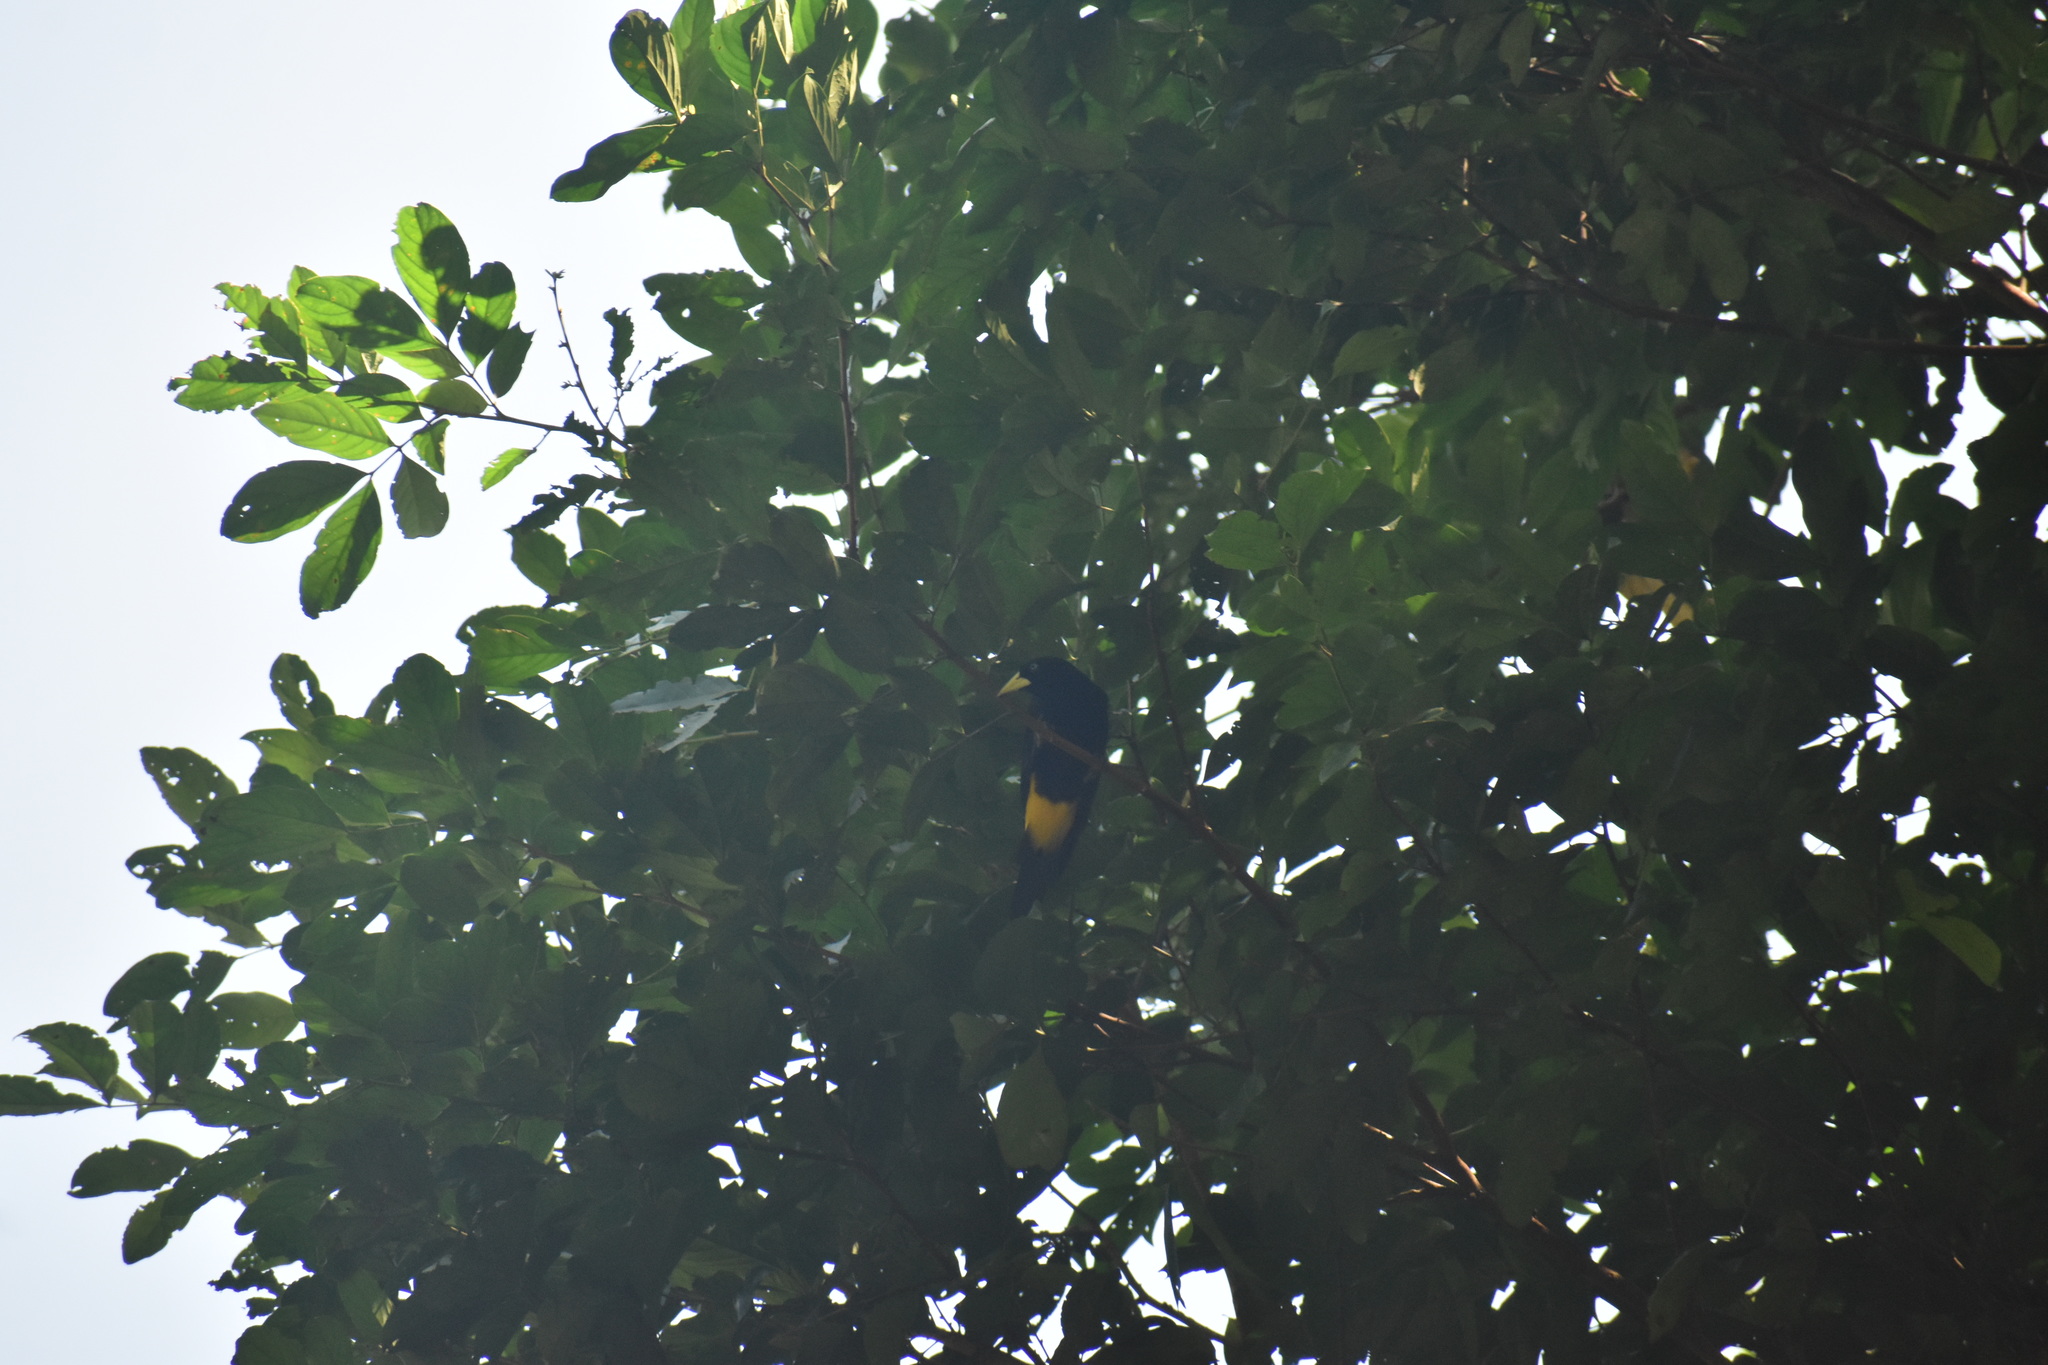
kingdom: Animalia
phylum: Chordata
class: Aves
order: Passeriformes
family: Icteridae
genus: Cacicus
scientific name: Cacicus cela
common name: Yellow-rumped cacique
